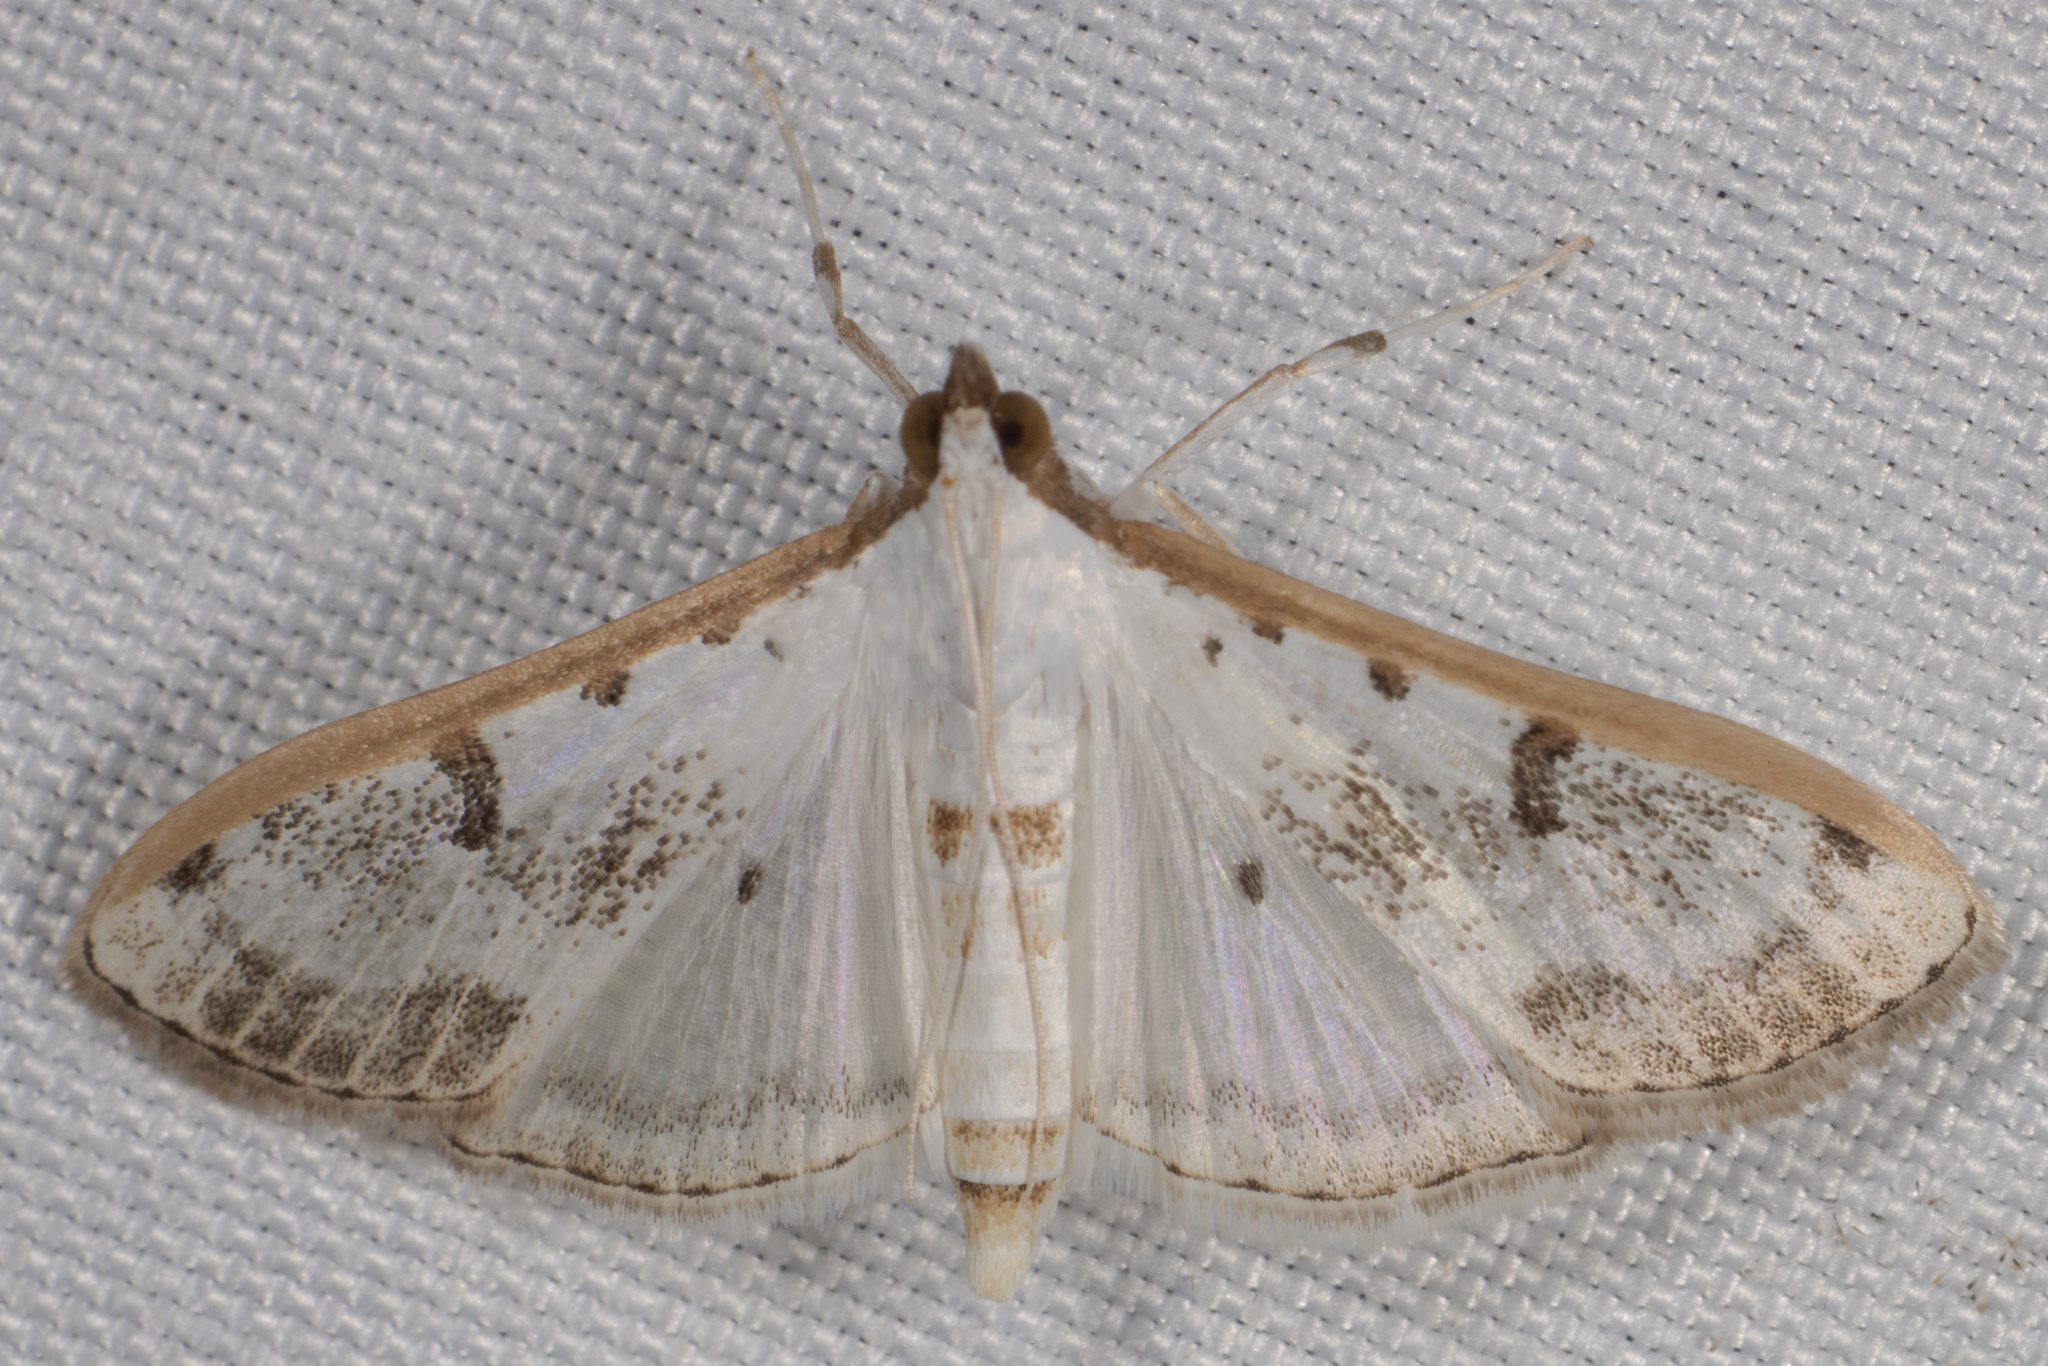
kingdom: Animalia
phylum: Arthropoda
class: Insecta
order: Lepidoptera
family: Crambidae
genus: Palpita
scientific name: Palpita gracilalis
